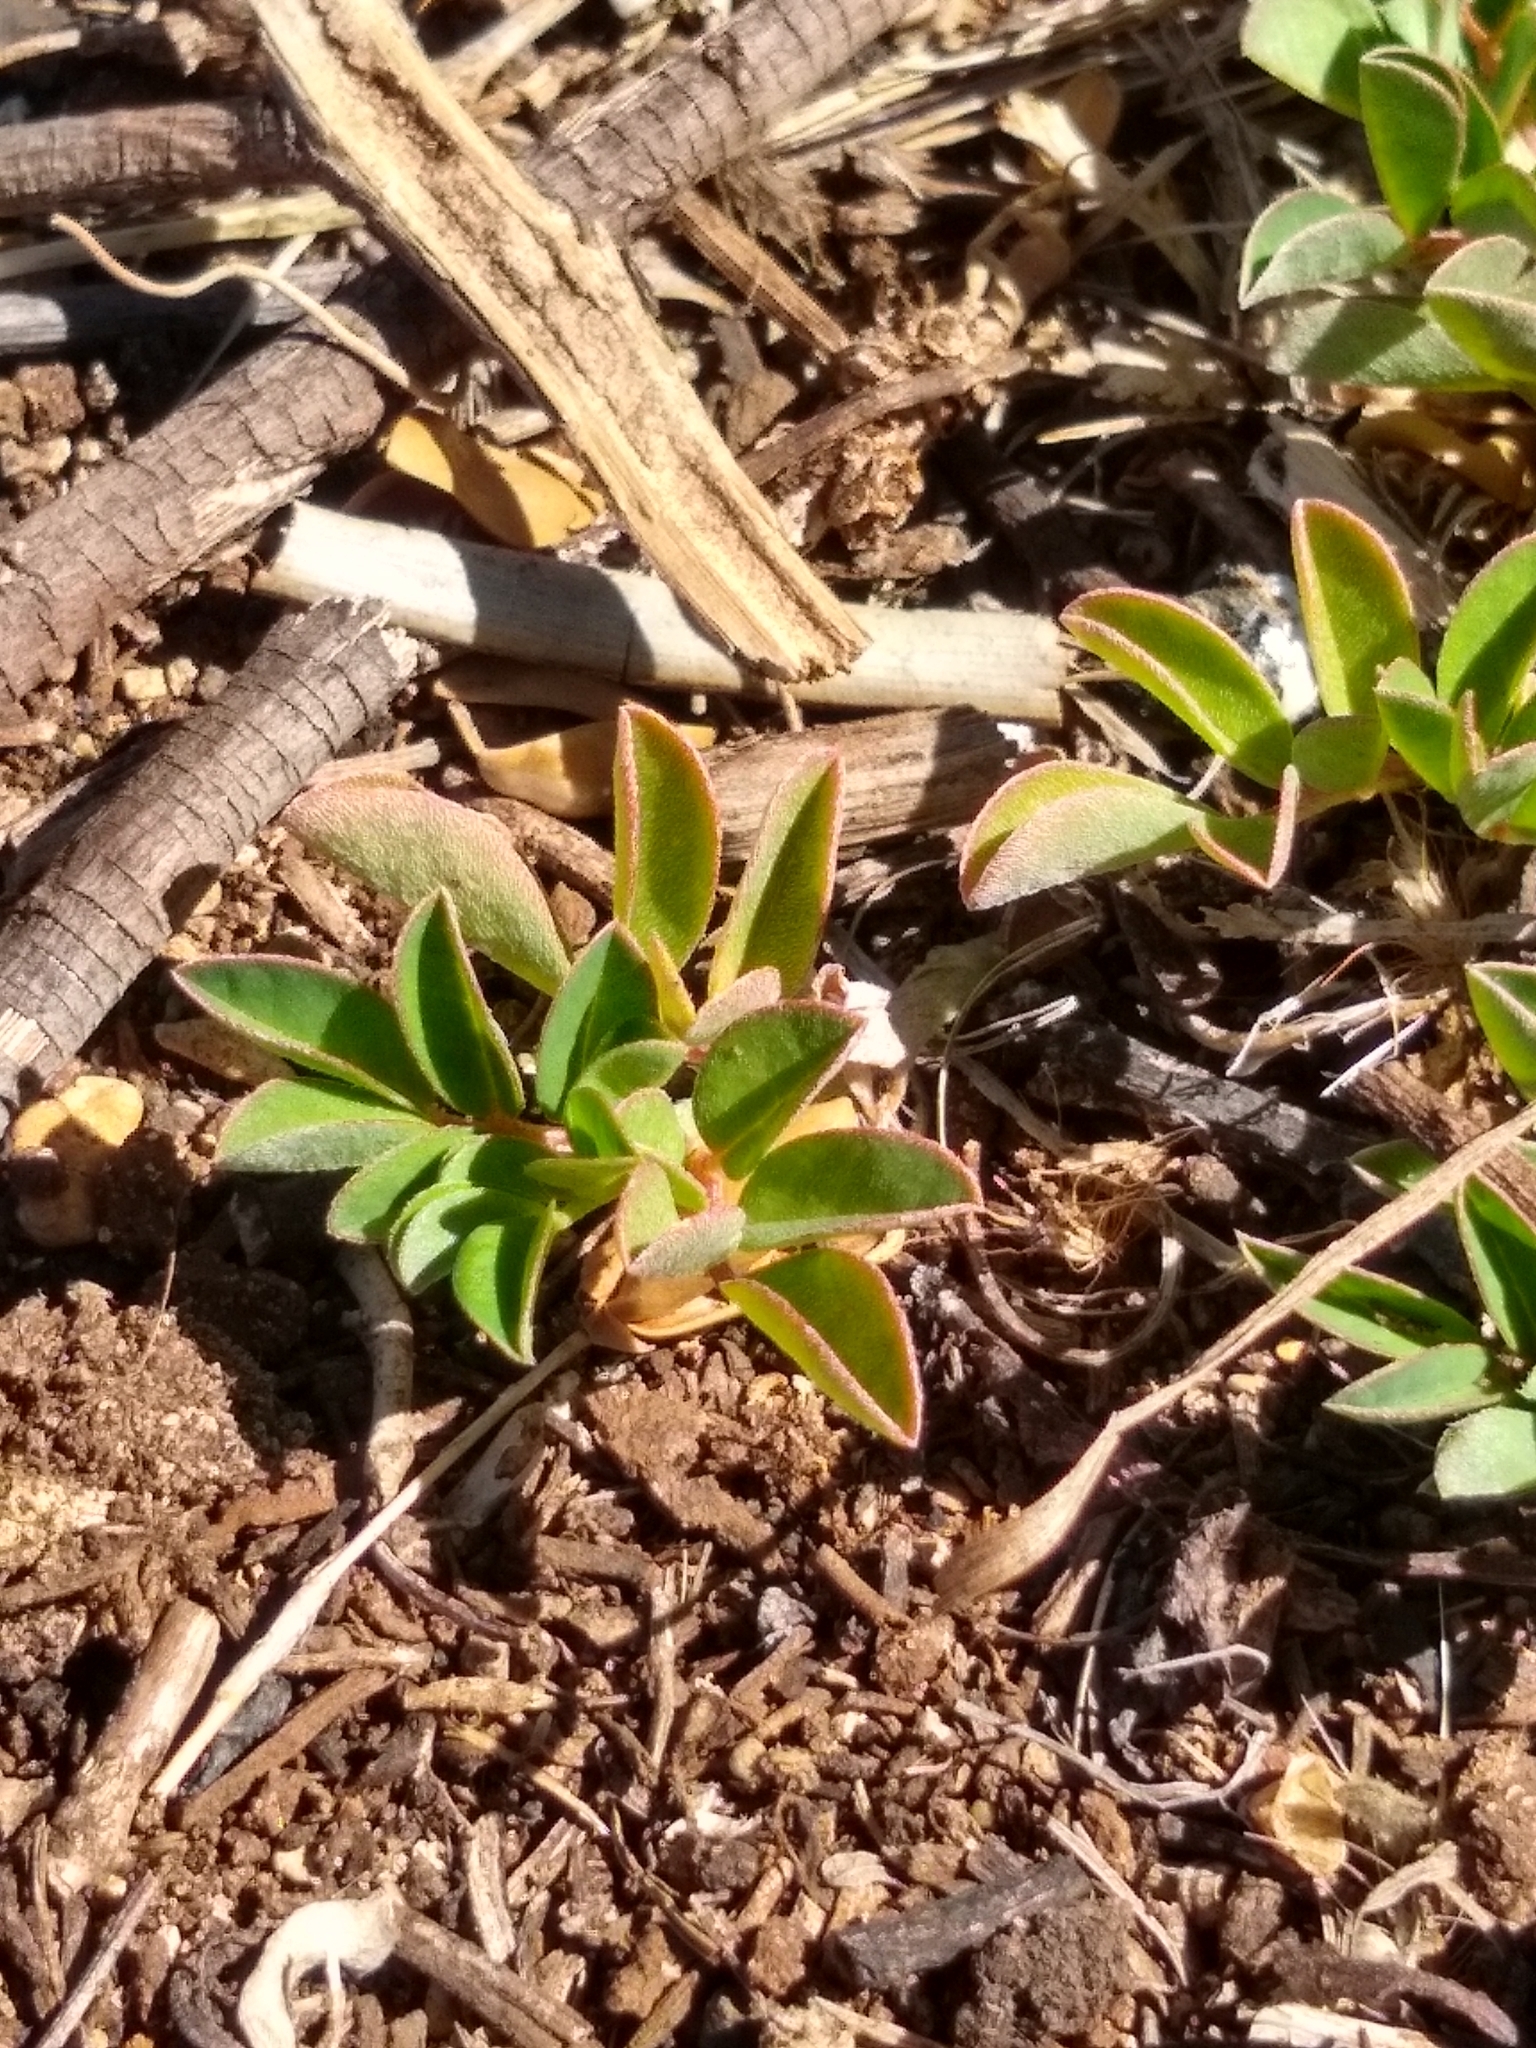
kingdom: Plantae
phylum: Tracheophyta
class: Magnoliopsida
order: Fabales
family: Fabaceae
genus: Indigofera
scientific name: Indigofera spicata
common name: Creeping indigo
